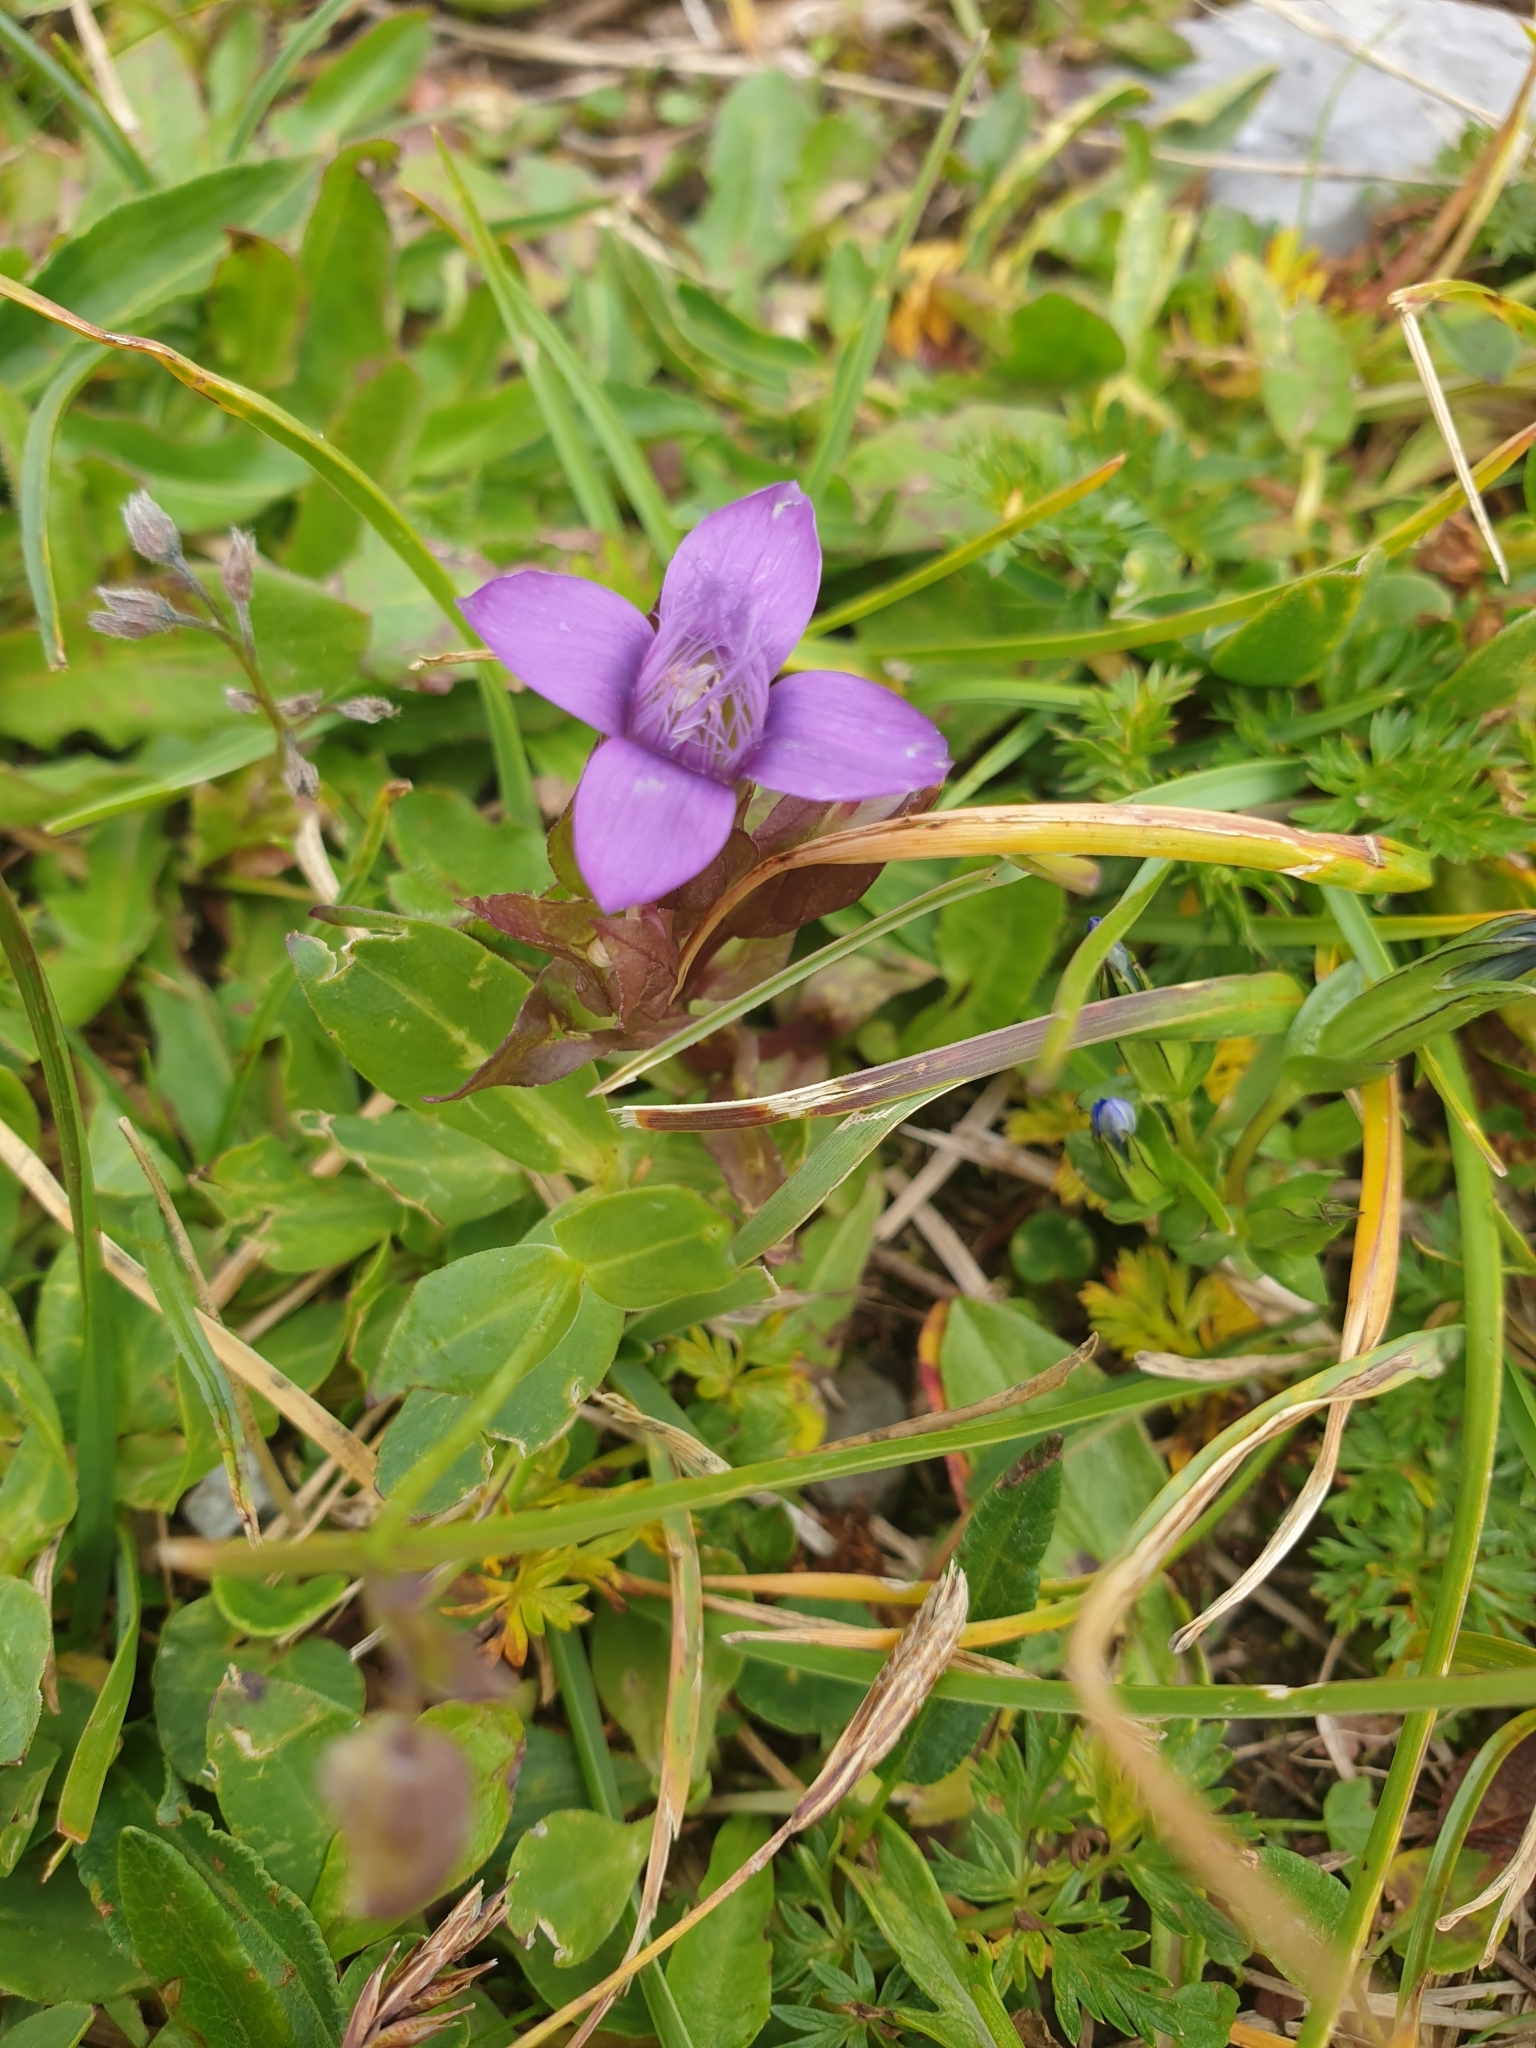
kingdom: Plantae
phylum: Tracheophyta
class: Magnoliopsida
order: Gentianales
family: Gentianaceae
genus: Gentianella
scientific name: Gentianella campestris
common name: Field gentian
